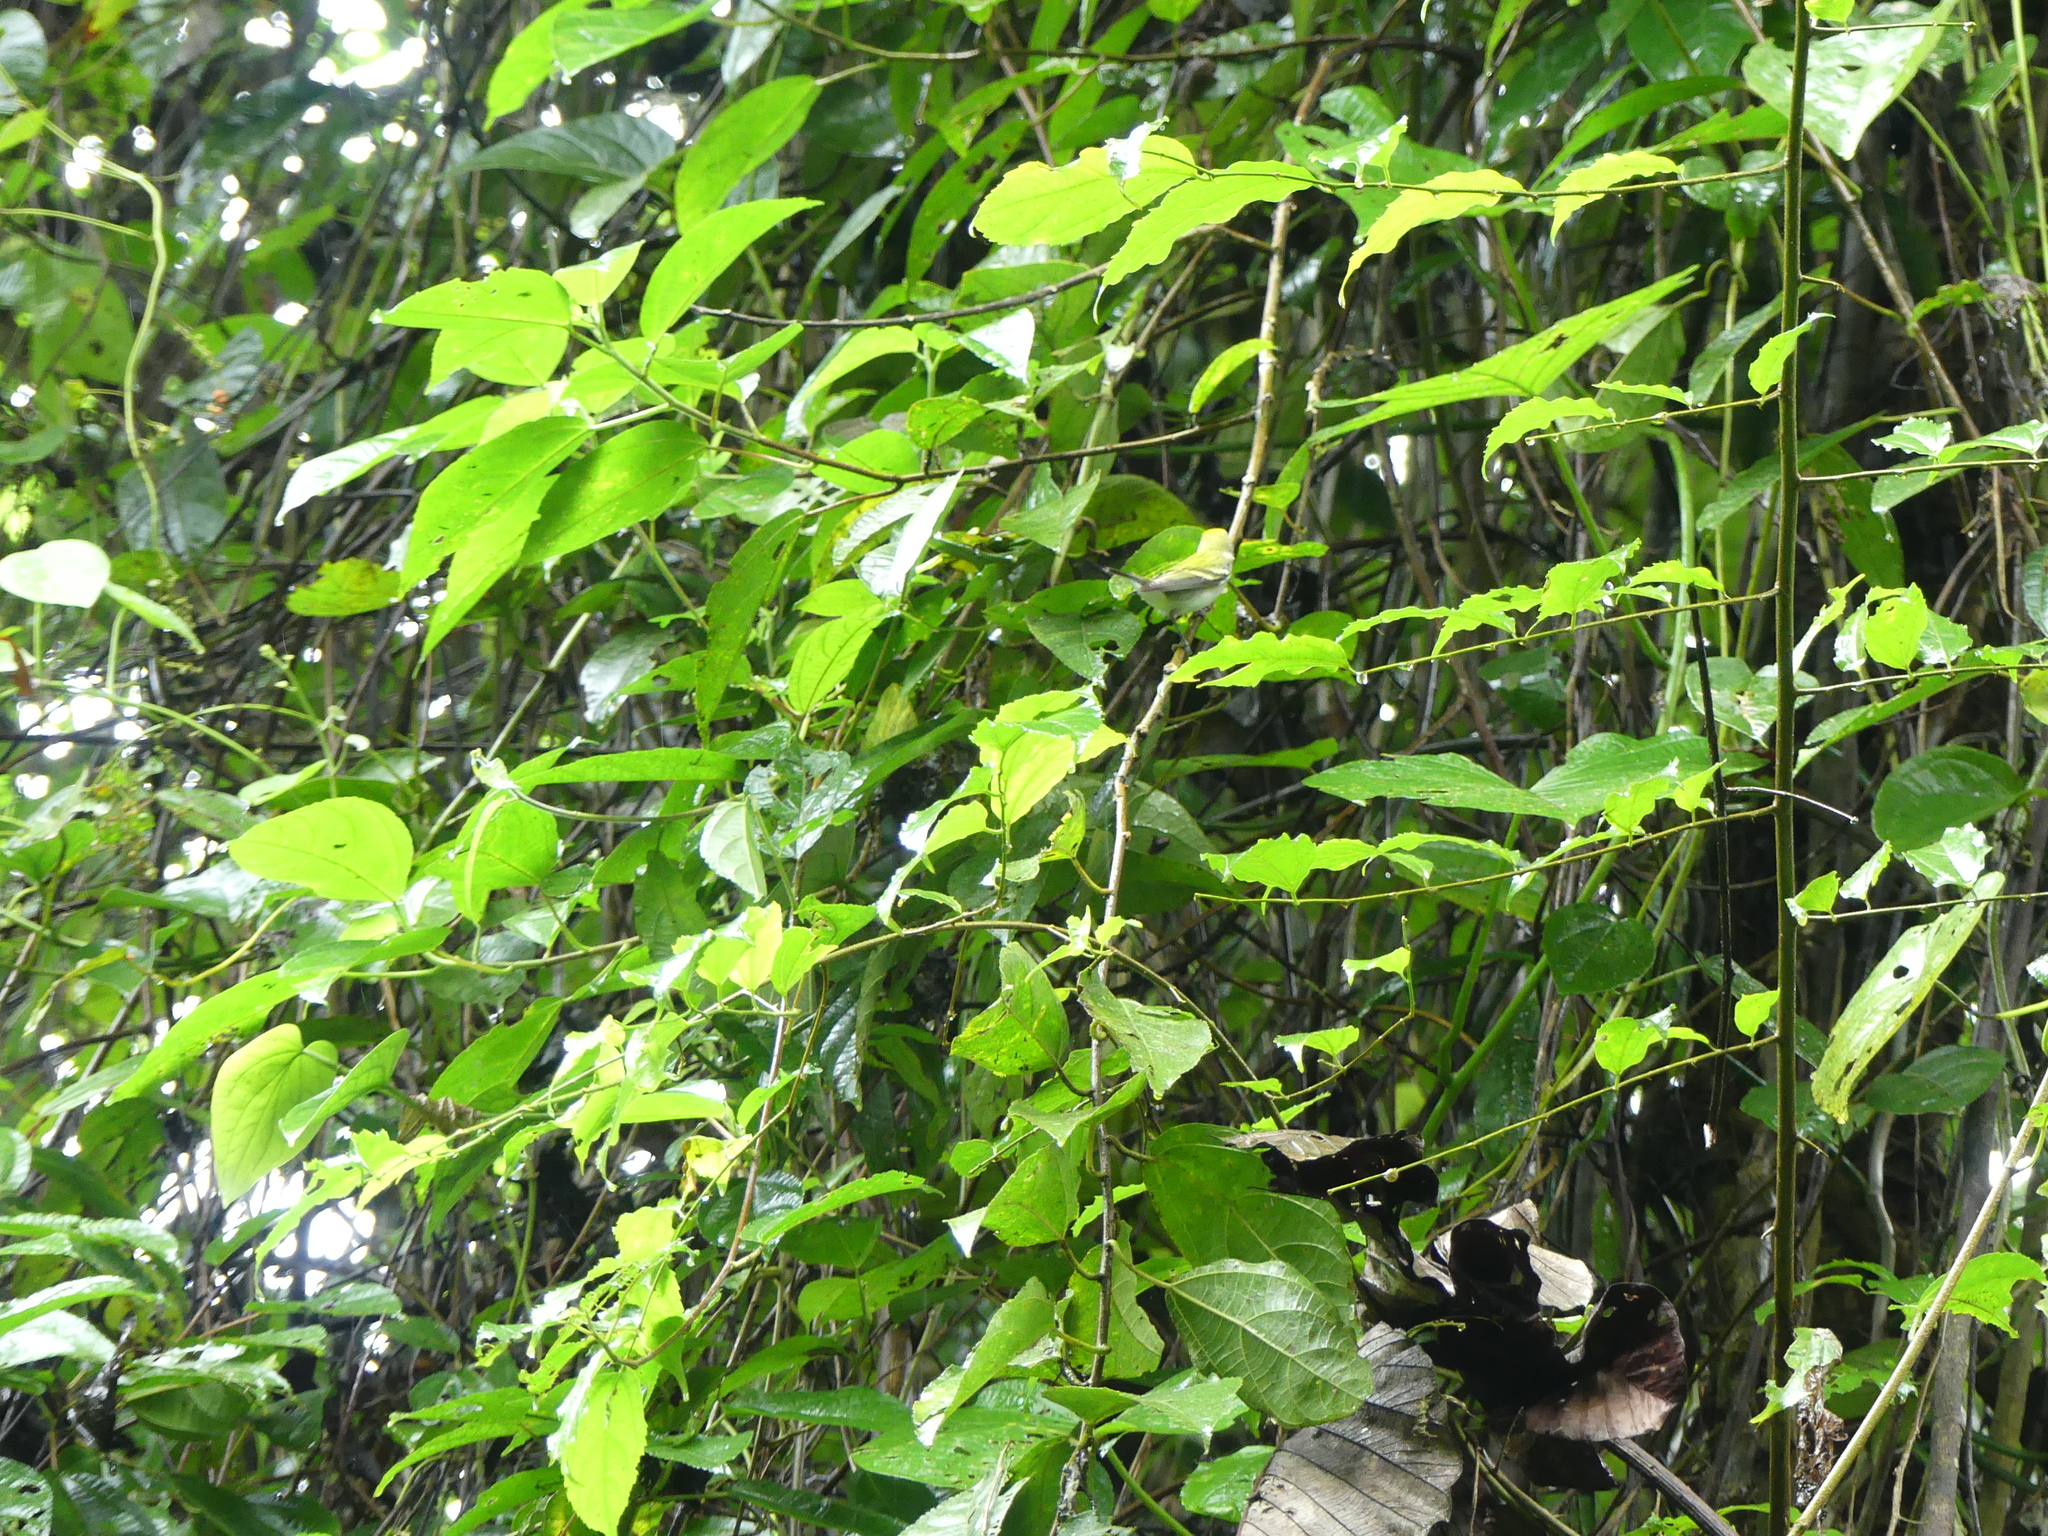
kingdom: Animalia
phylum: Chordata
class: Aves
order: Passeriformes
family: Parulidae
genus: Setophaga
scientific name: Setophaga pensylvanica
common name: Chestnut-sided warbler
